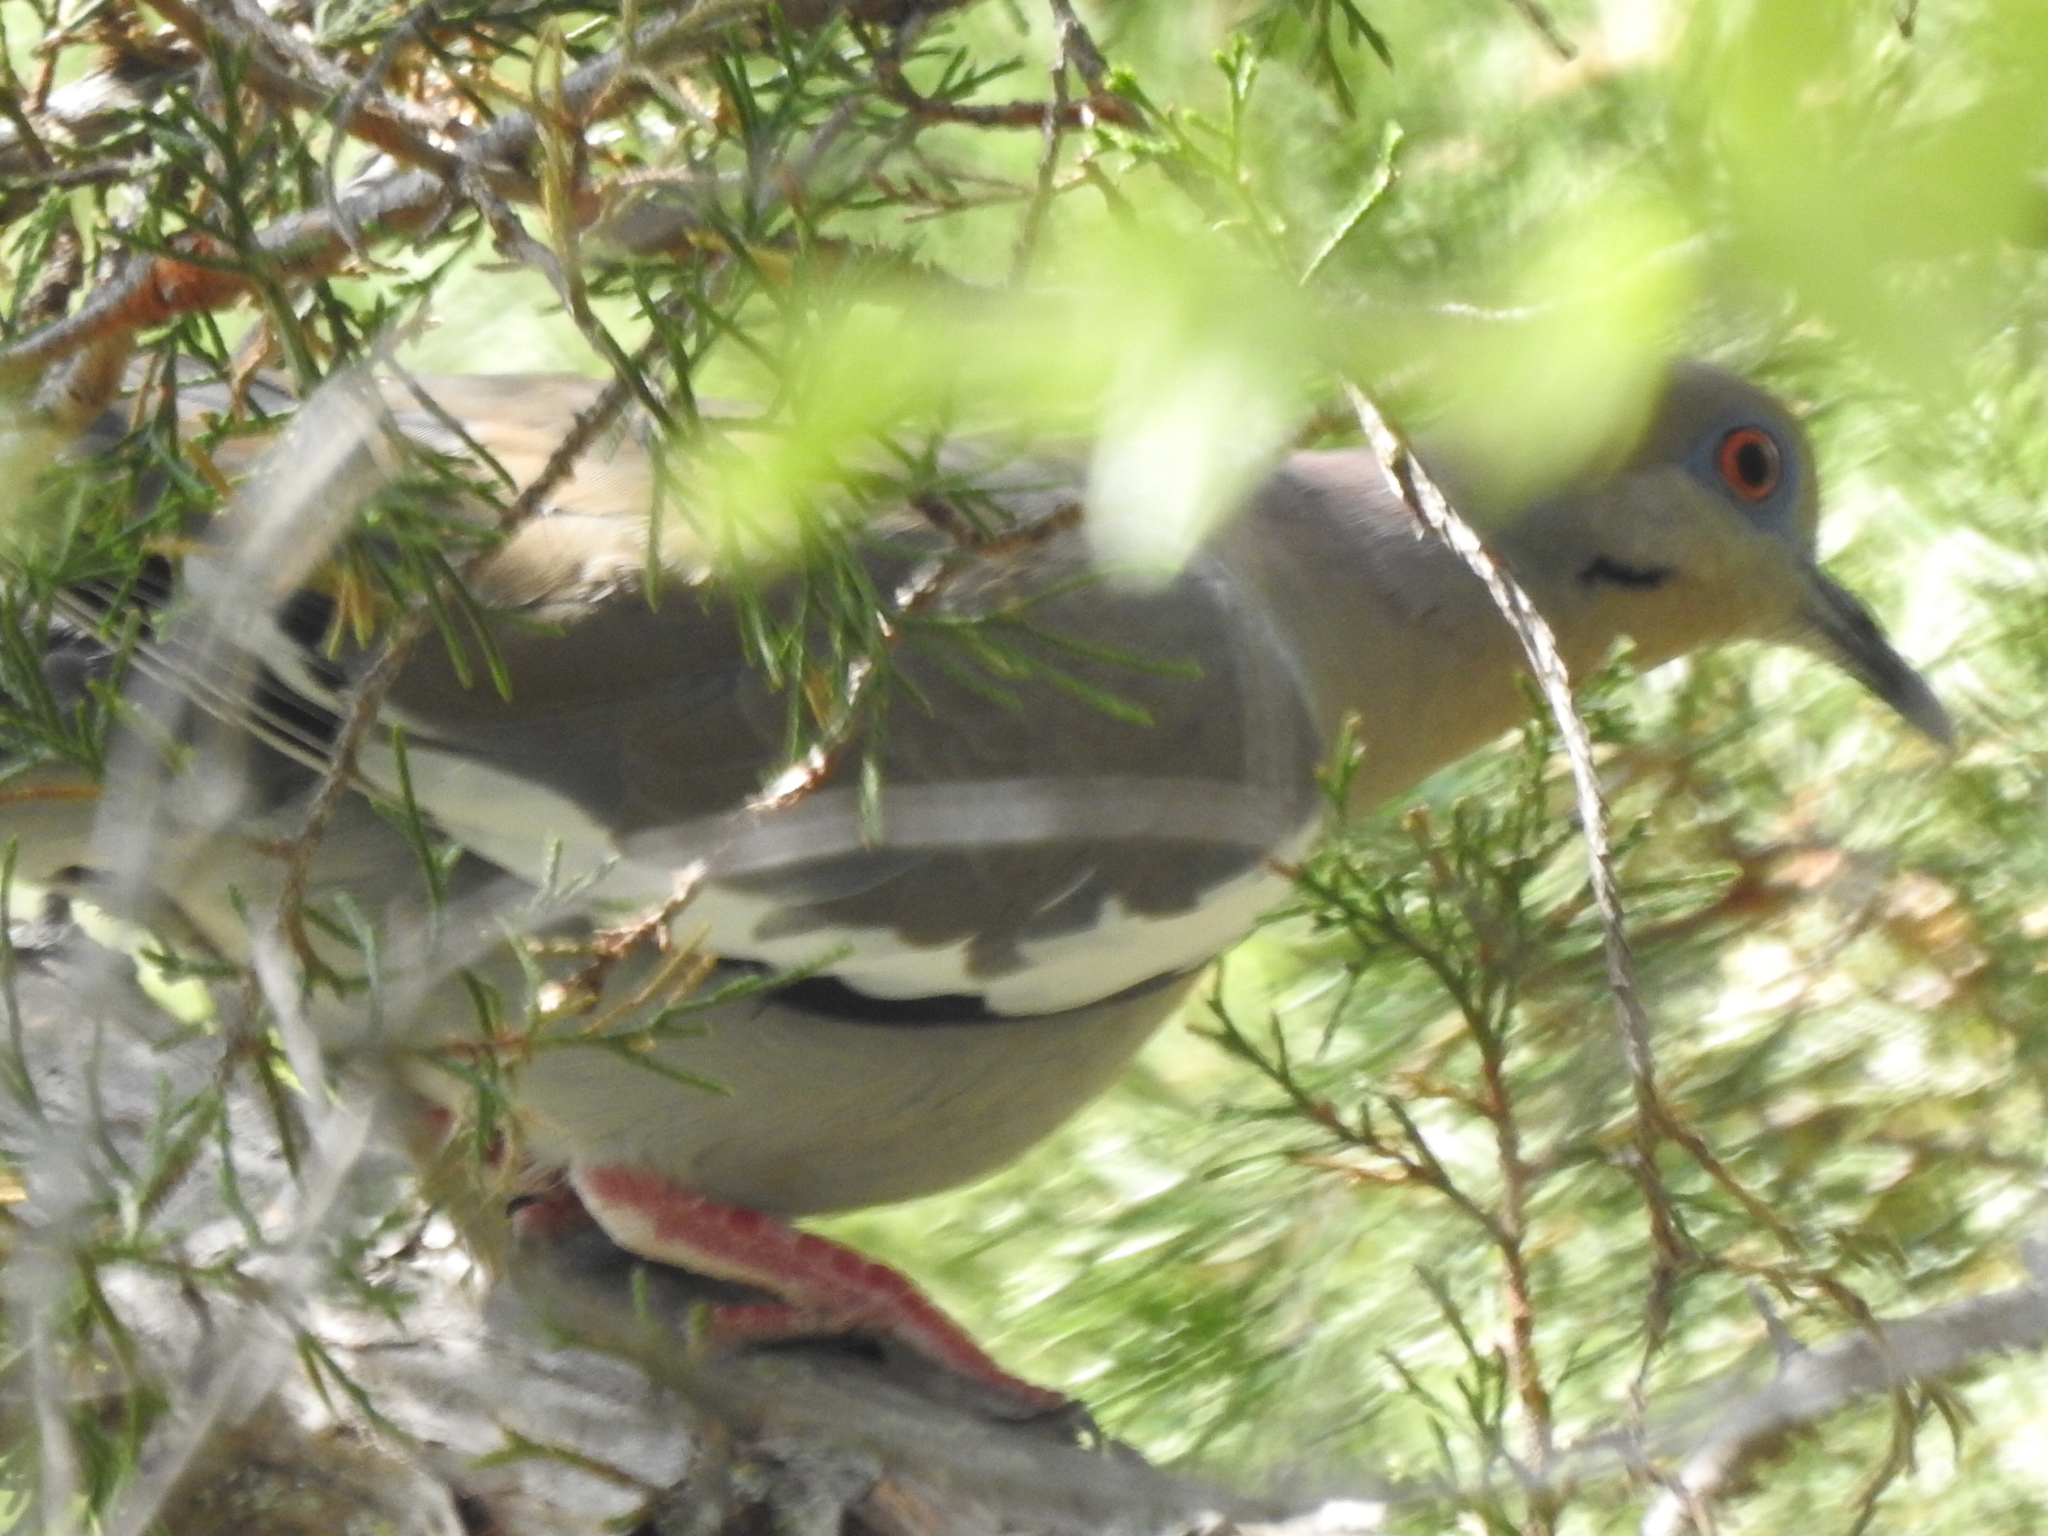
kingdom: Animalia
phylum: Chordata
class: Aves
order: Columbiformes
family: Columbidae
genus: Zenaida
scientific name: Zenaida asiatica
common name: White-winged dove
